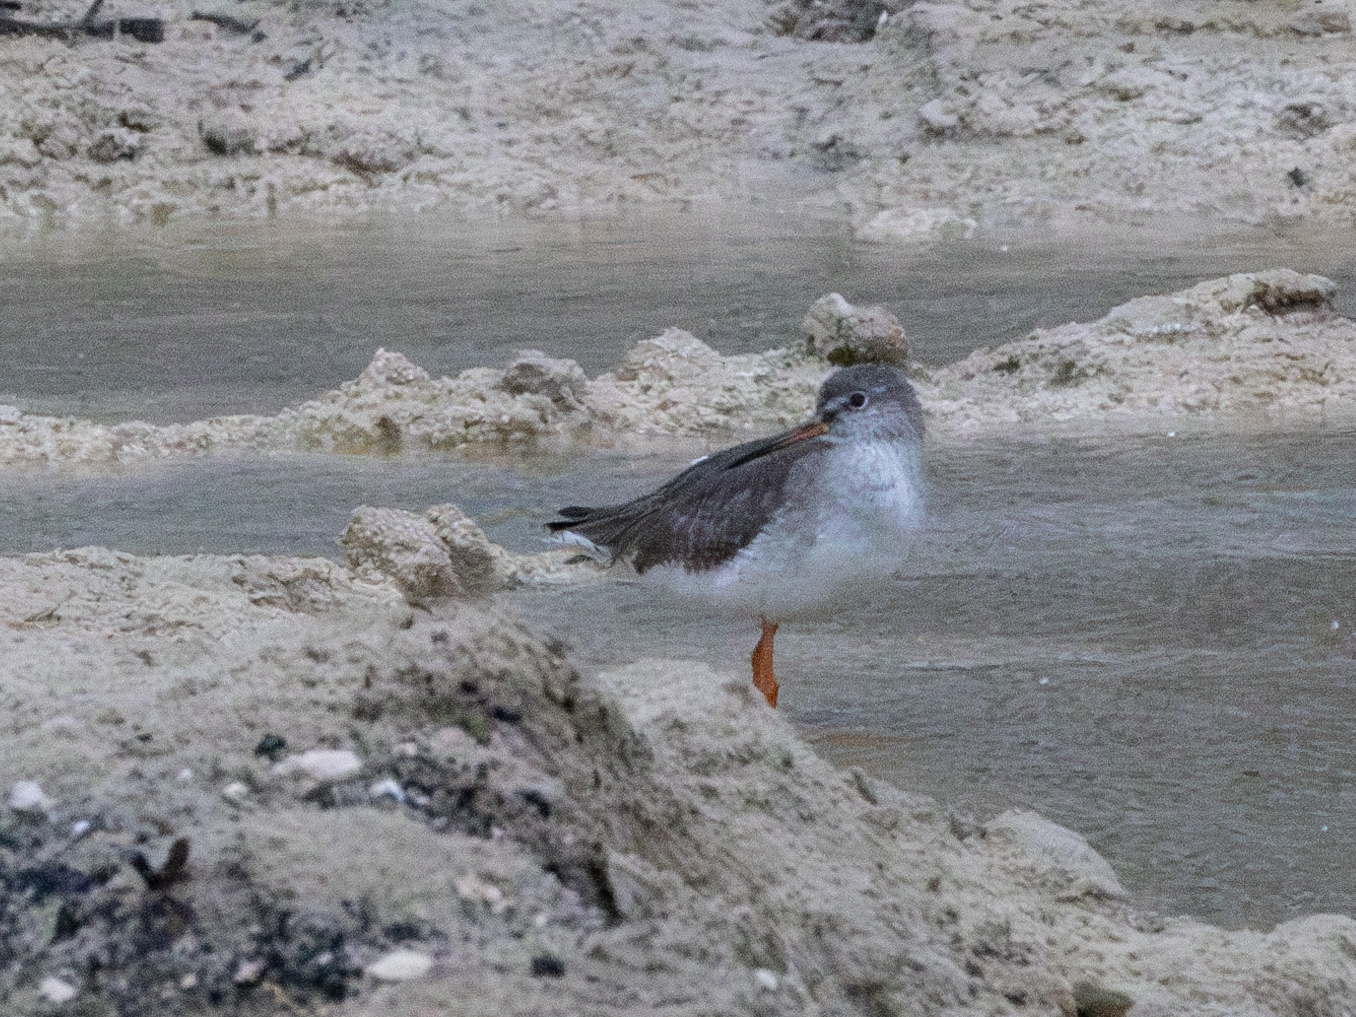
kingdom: Animalia
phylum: Chordata
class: Aves
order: Charadriiformes
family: Scolopacidae
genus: Tringa
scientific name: Tringa totanus
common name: Common redshank
